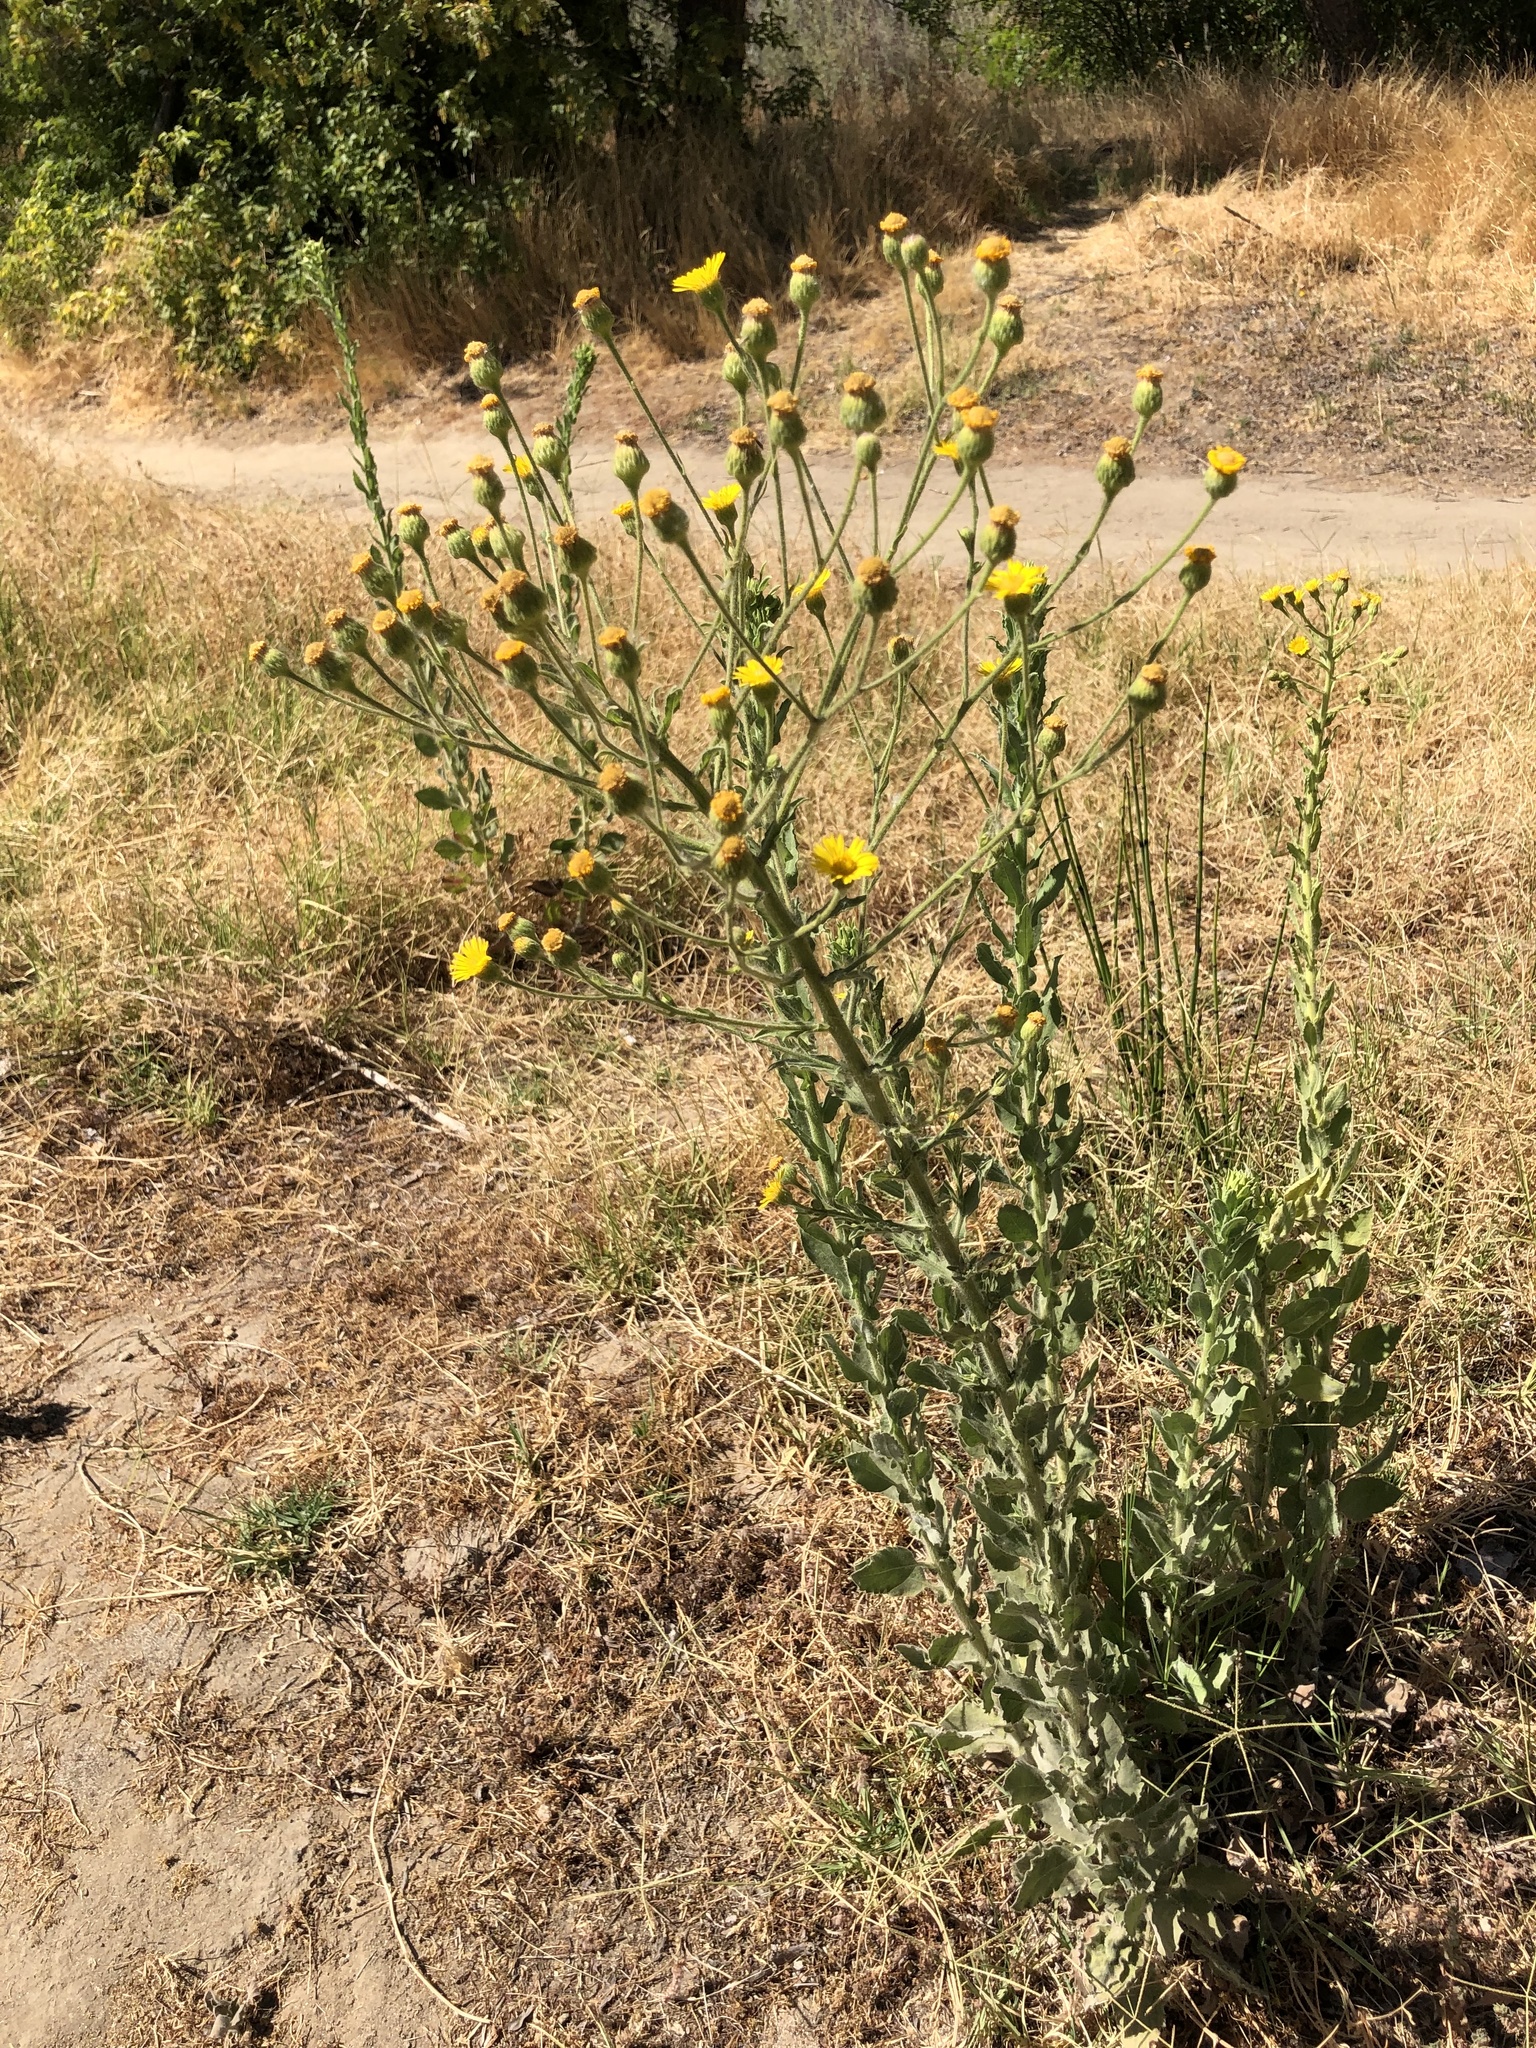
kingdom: Plantae
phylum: Tracheophyta
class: Magnoliopsida
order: Asterales
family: Asteraceae
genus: Heterotheca
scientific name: Heterotheca grandiflora
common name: Telegraphweed
